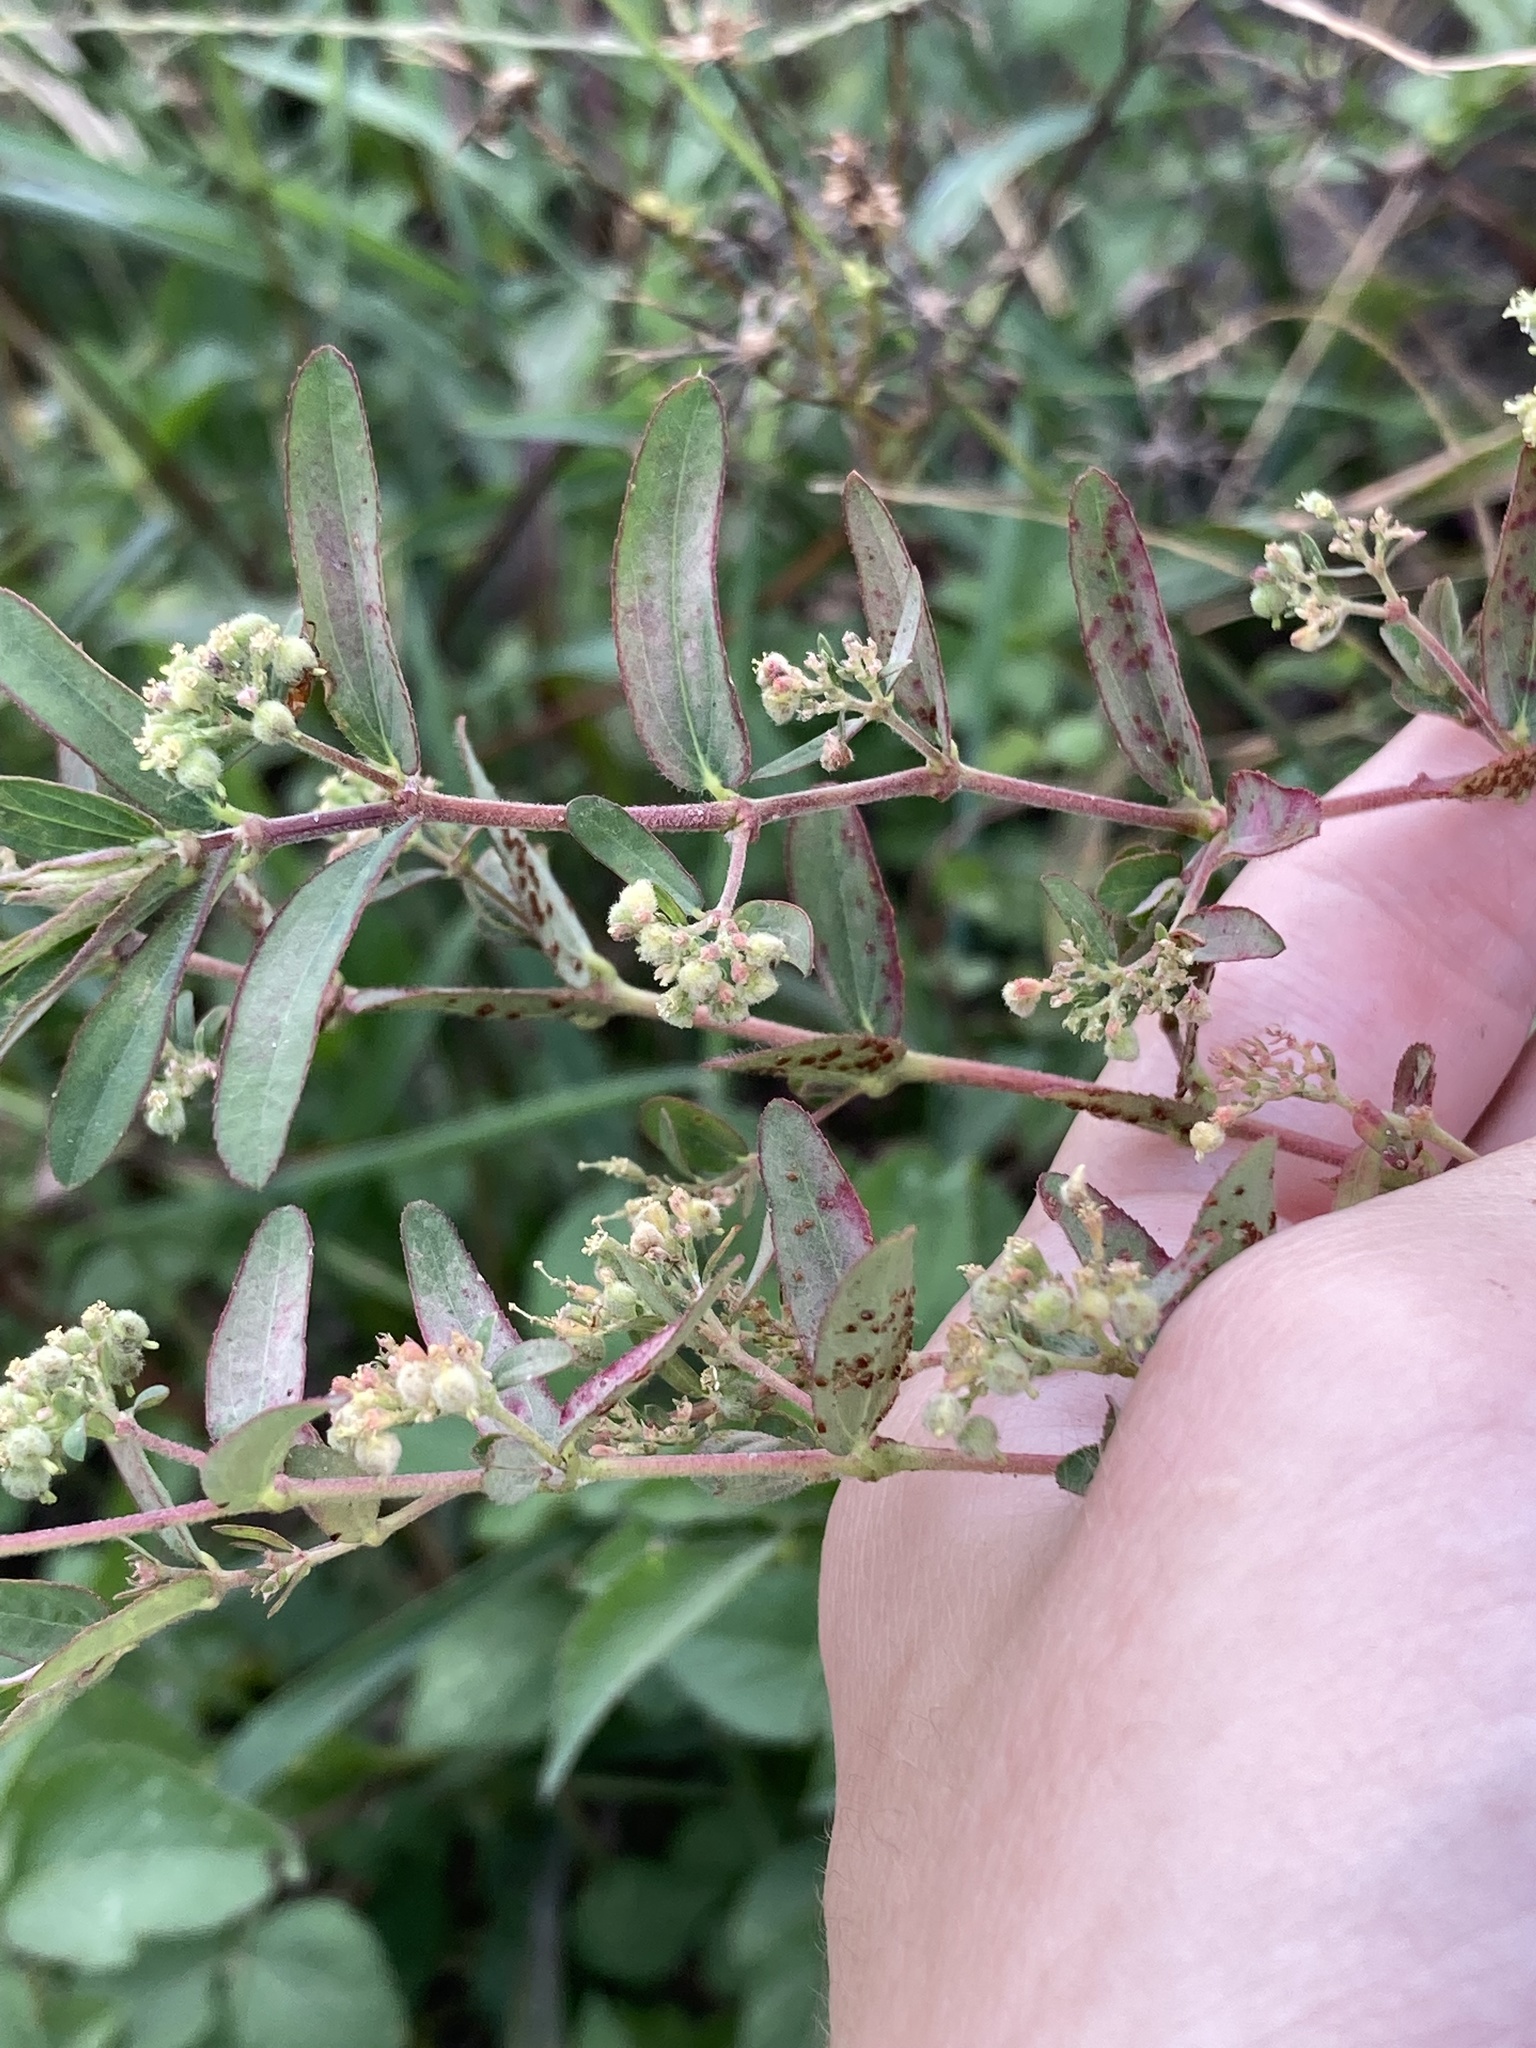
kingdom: Plantae
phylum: Tracheophyta
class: Magnoliopsida
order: Malpighiales
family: Euphorbiaceae
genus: Euphorbia
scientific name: Euphorbia lasiocarpa
